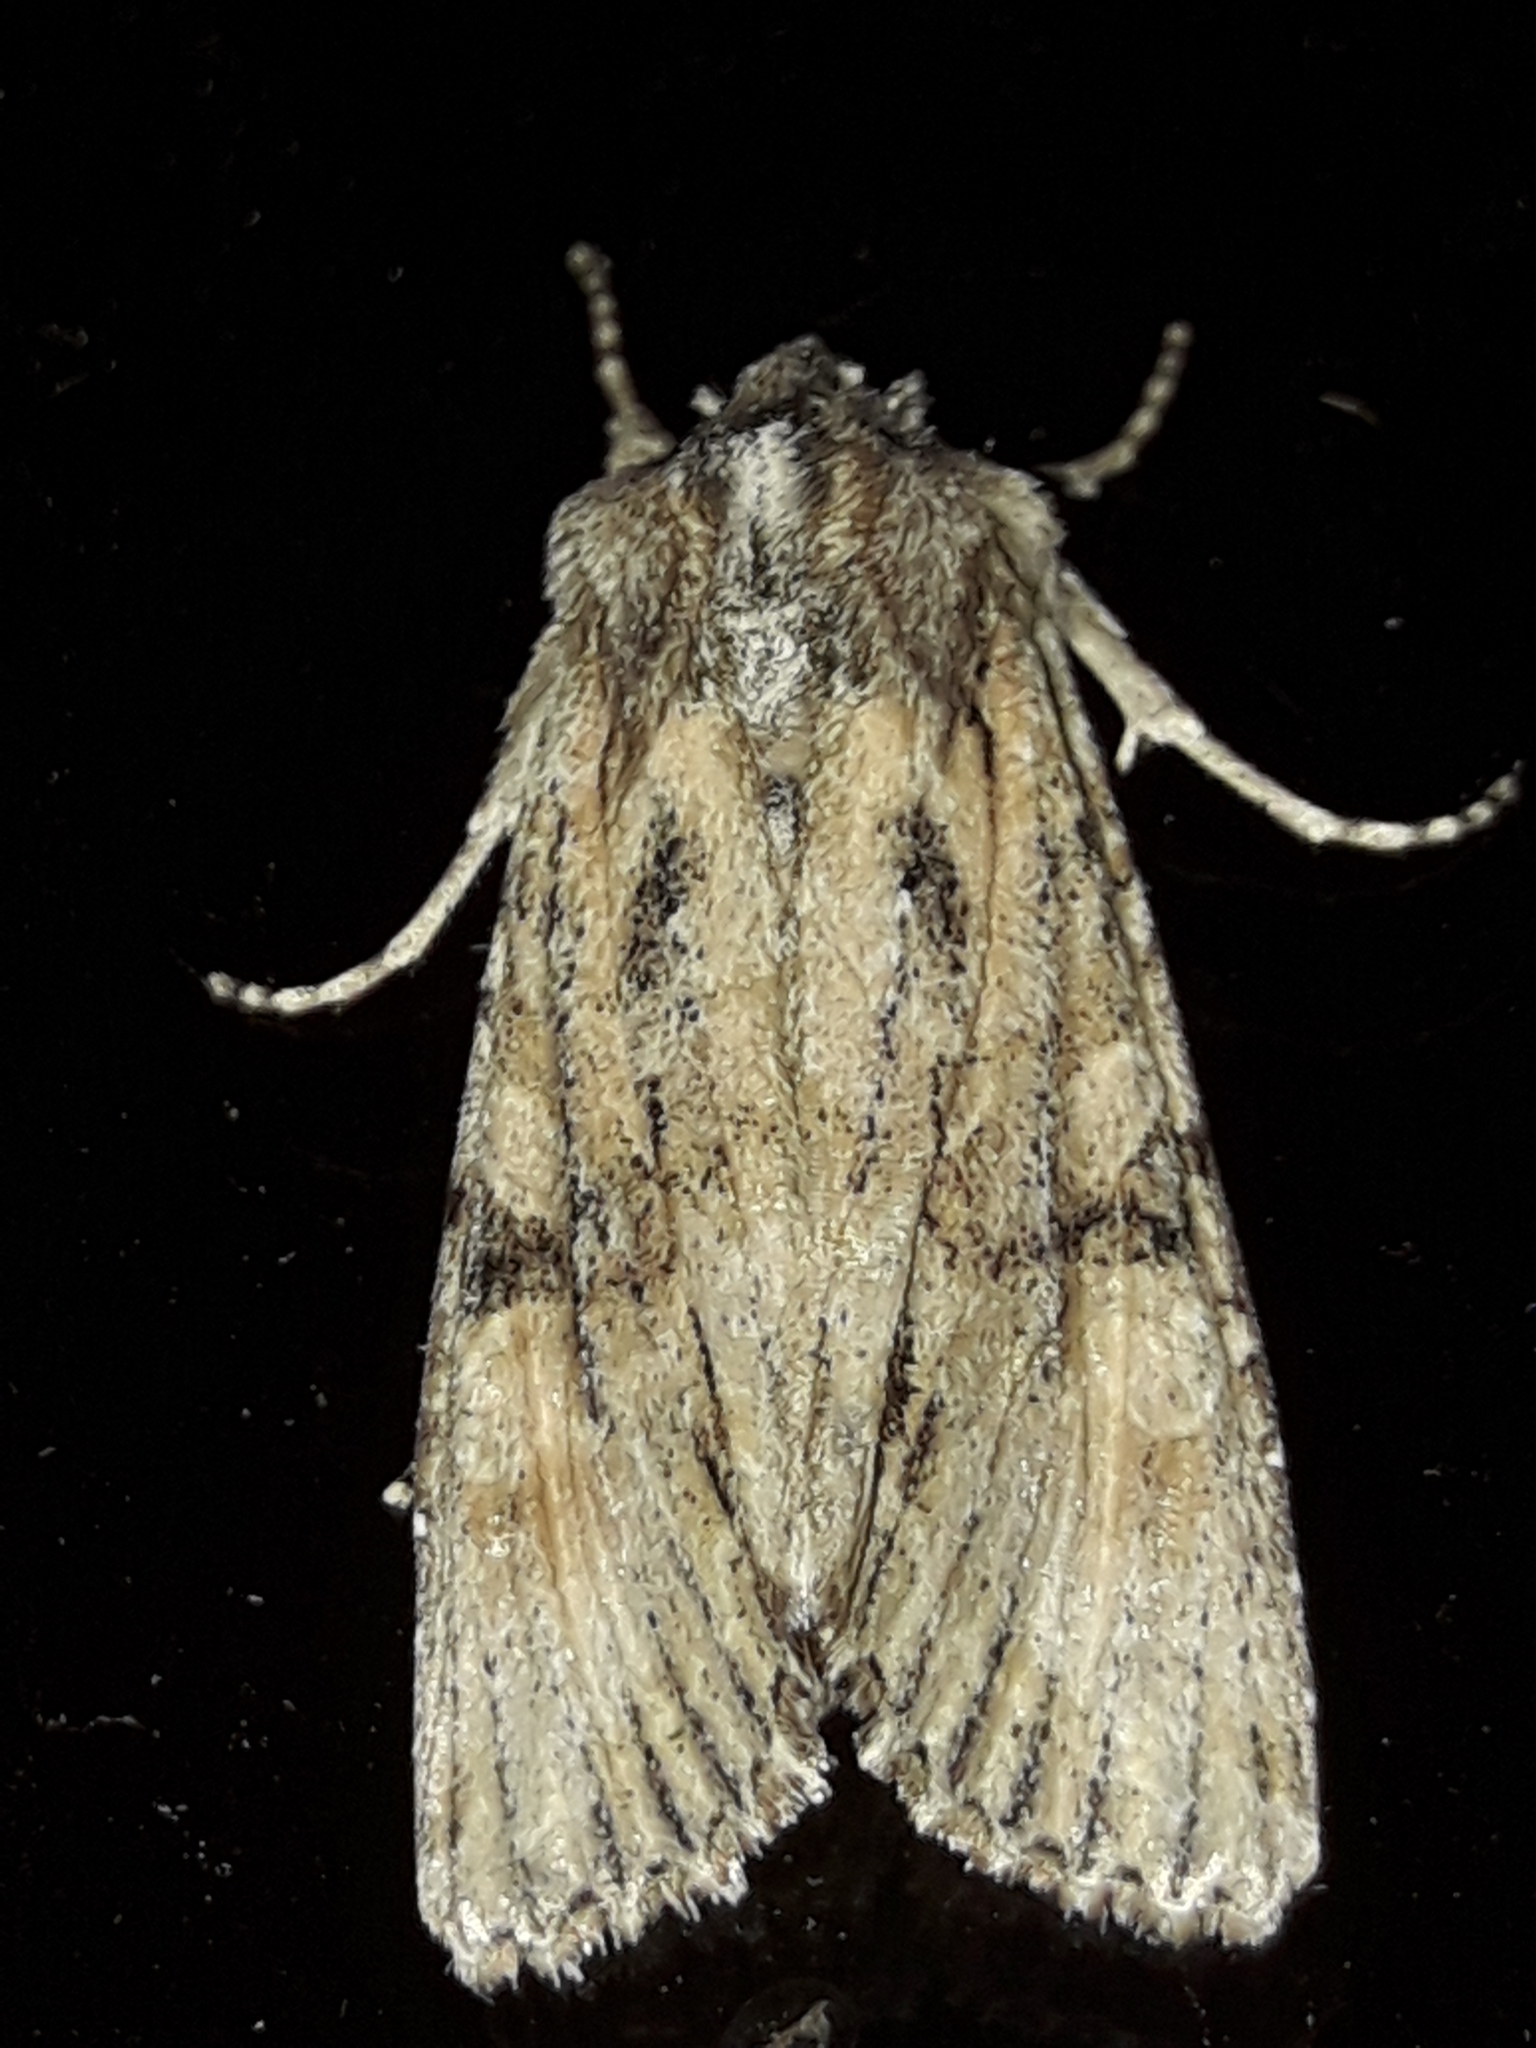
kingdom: Animalia
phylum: Arthropoda
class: Insecta
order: Lepidoptera
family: Noctuidae
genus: Ichneutica
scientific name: Ichneutica mutans
